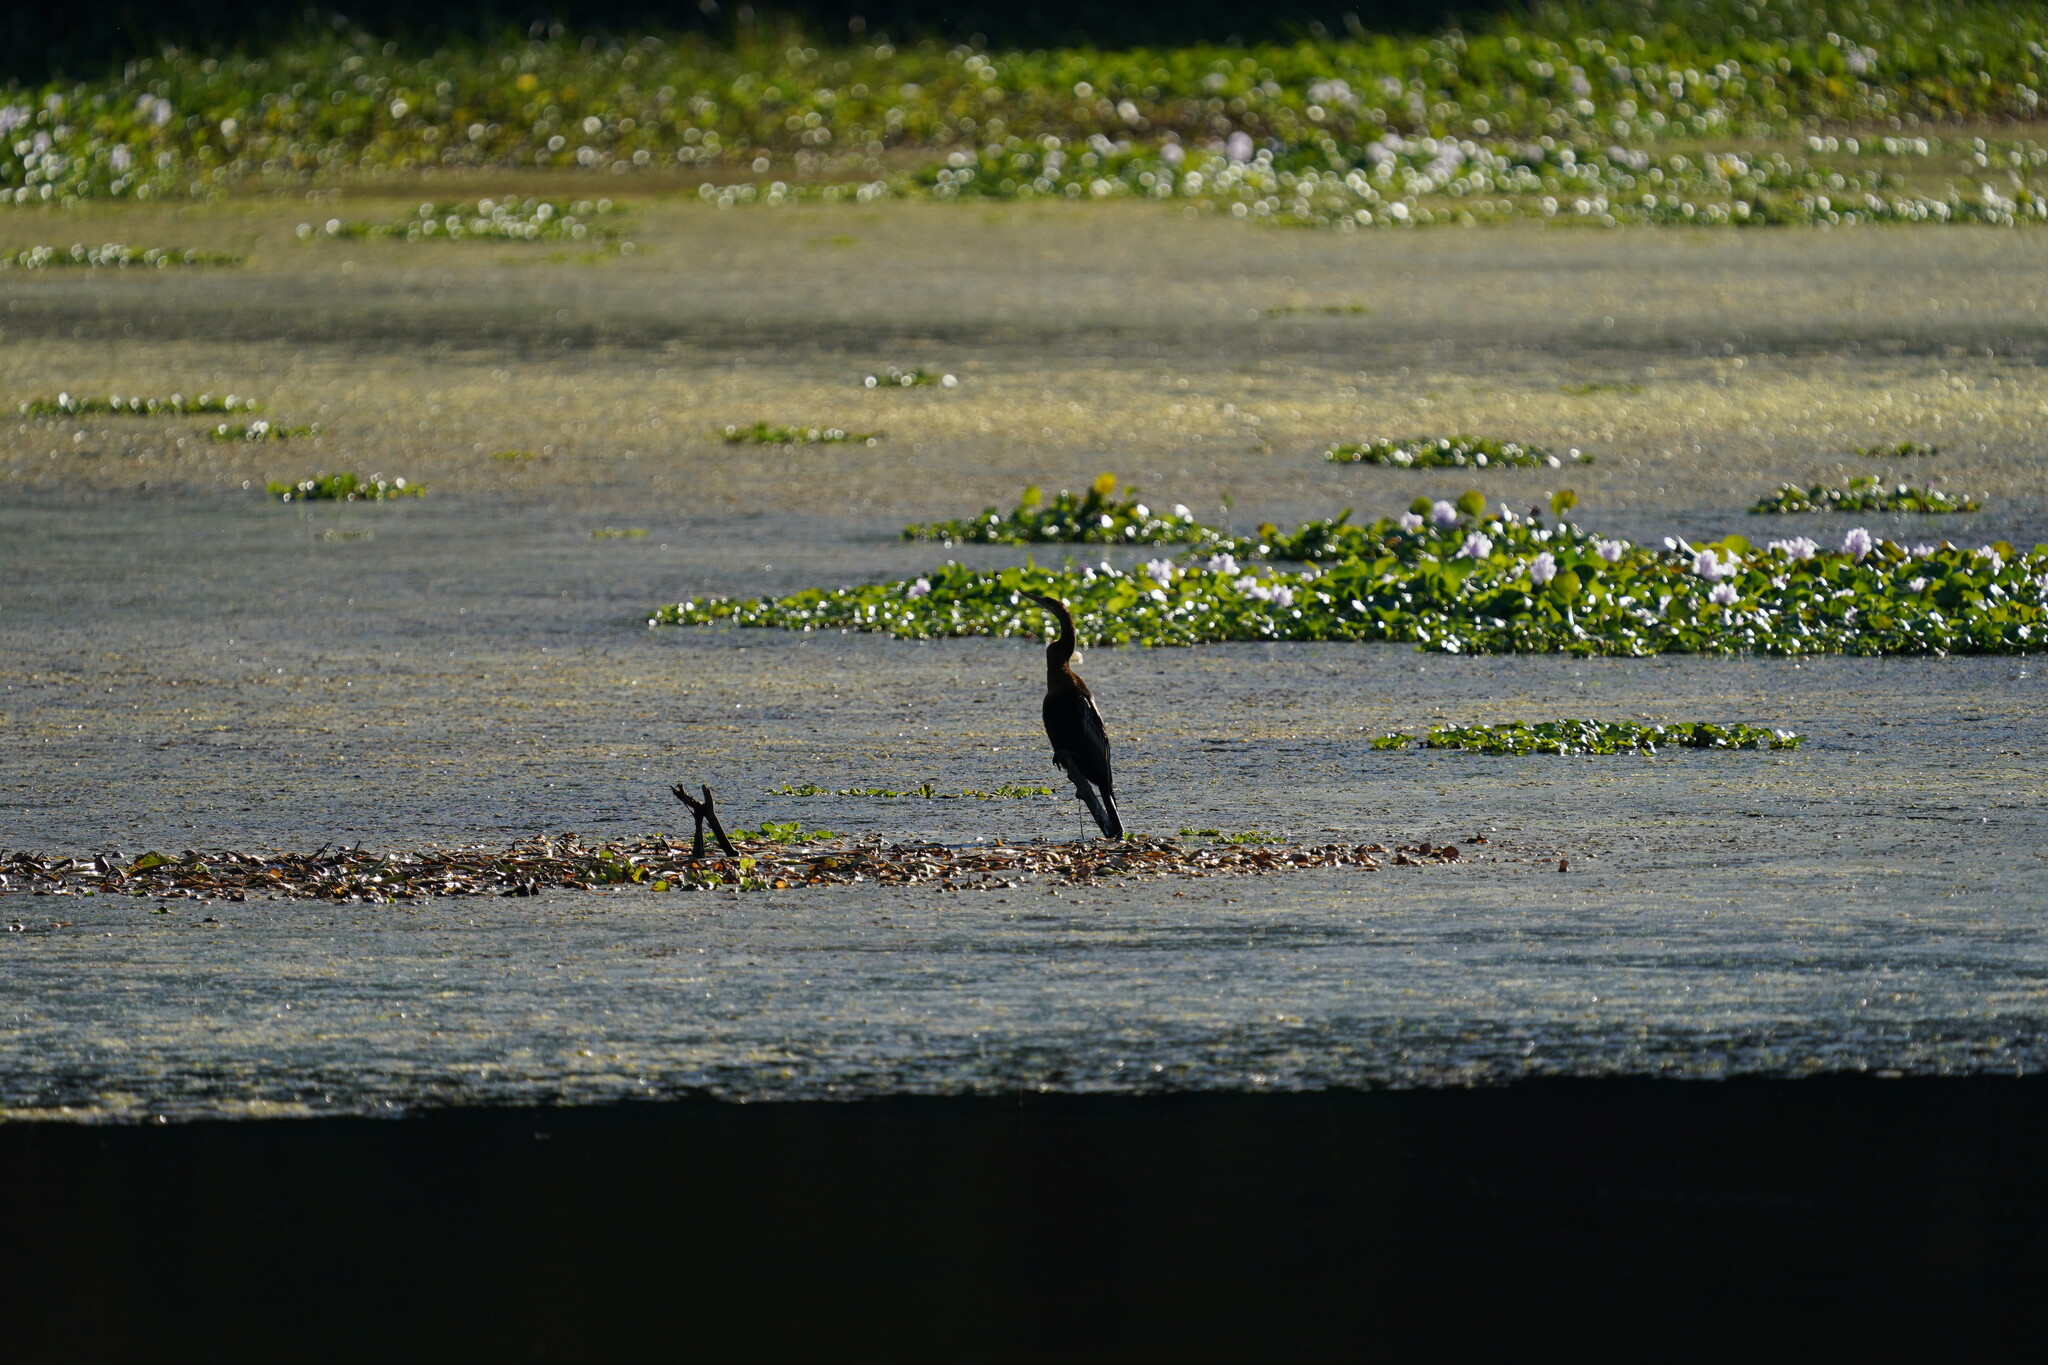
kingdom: Animalia
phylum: Chordata
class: Aves
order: Suliformes
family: Anhingidae
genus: Anhinga
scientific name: Anhinga anhinga
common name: Anhinga
